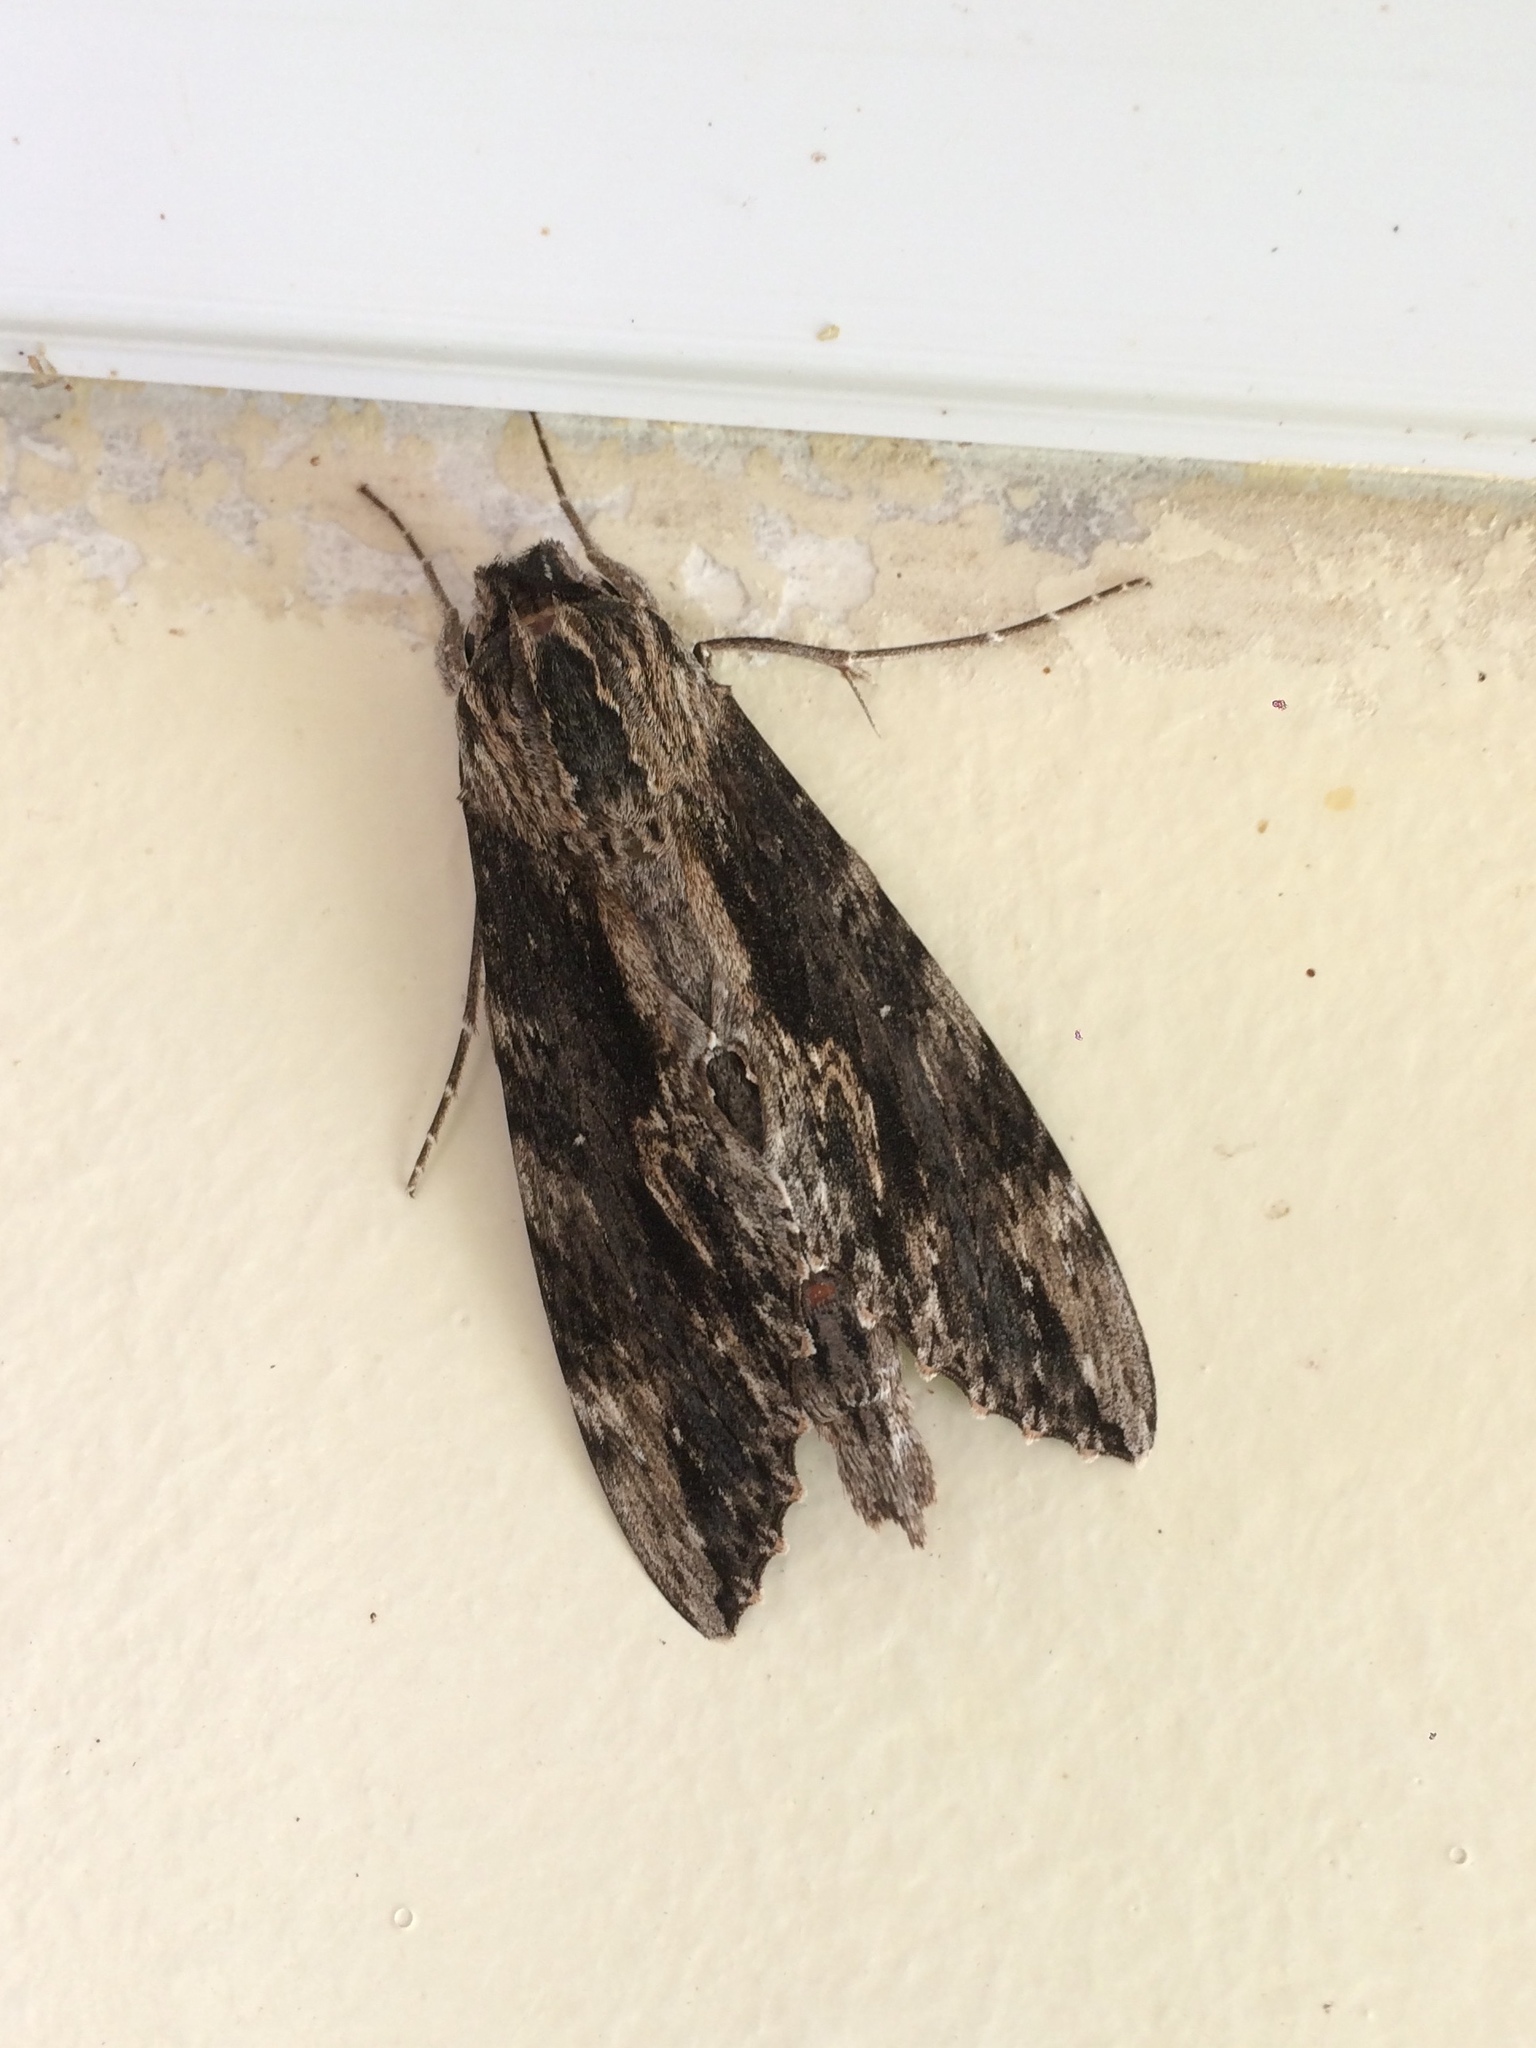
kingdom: Animalia
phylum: Arthropoda
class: Insecta
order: Lepidoptera
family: Sphingidae
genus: Erinnyis
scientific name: Erinnyis oenotrus
